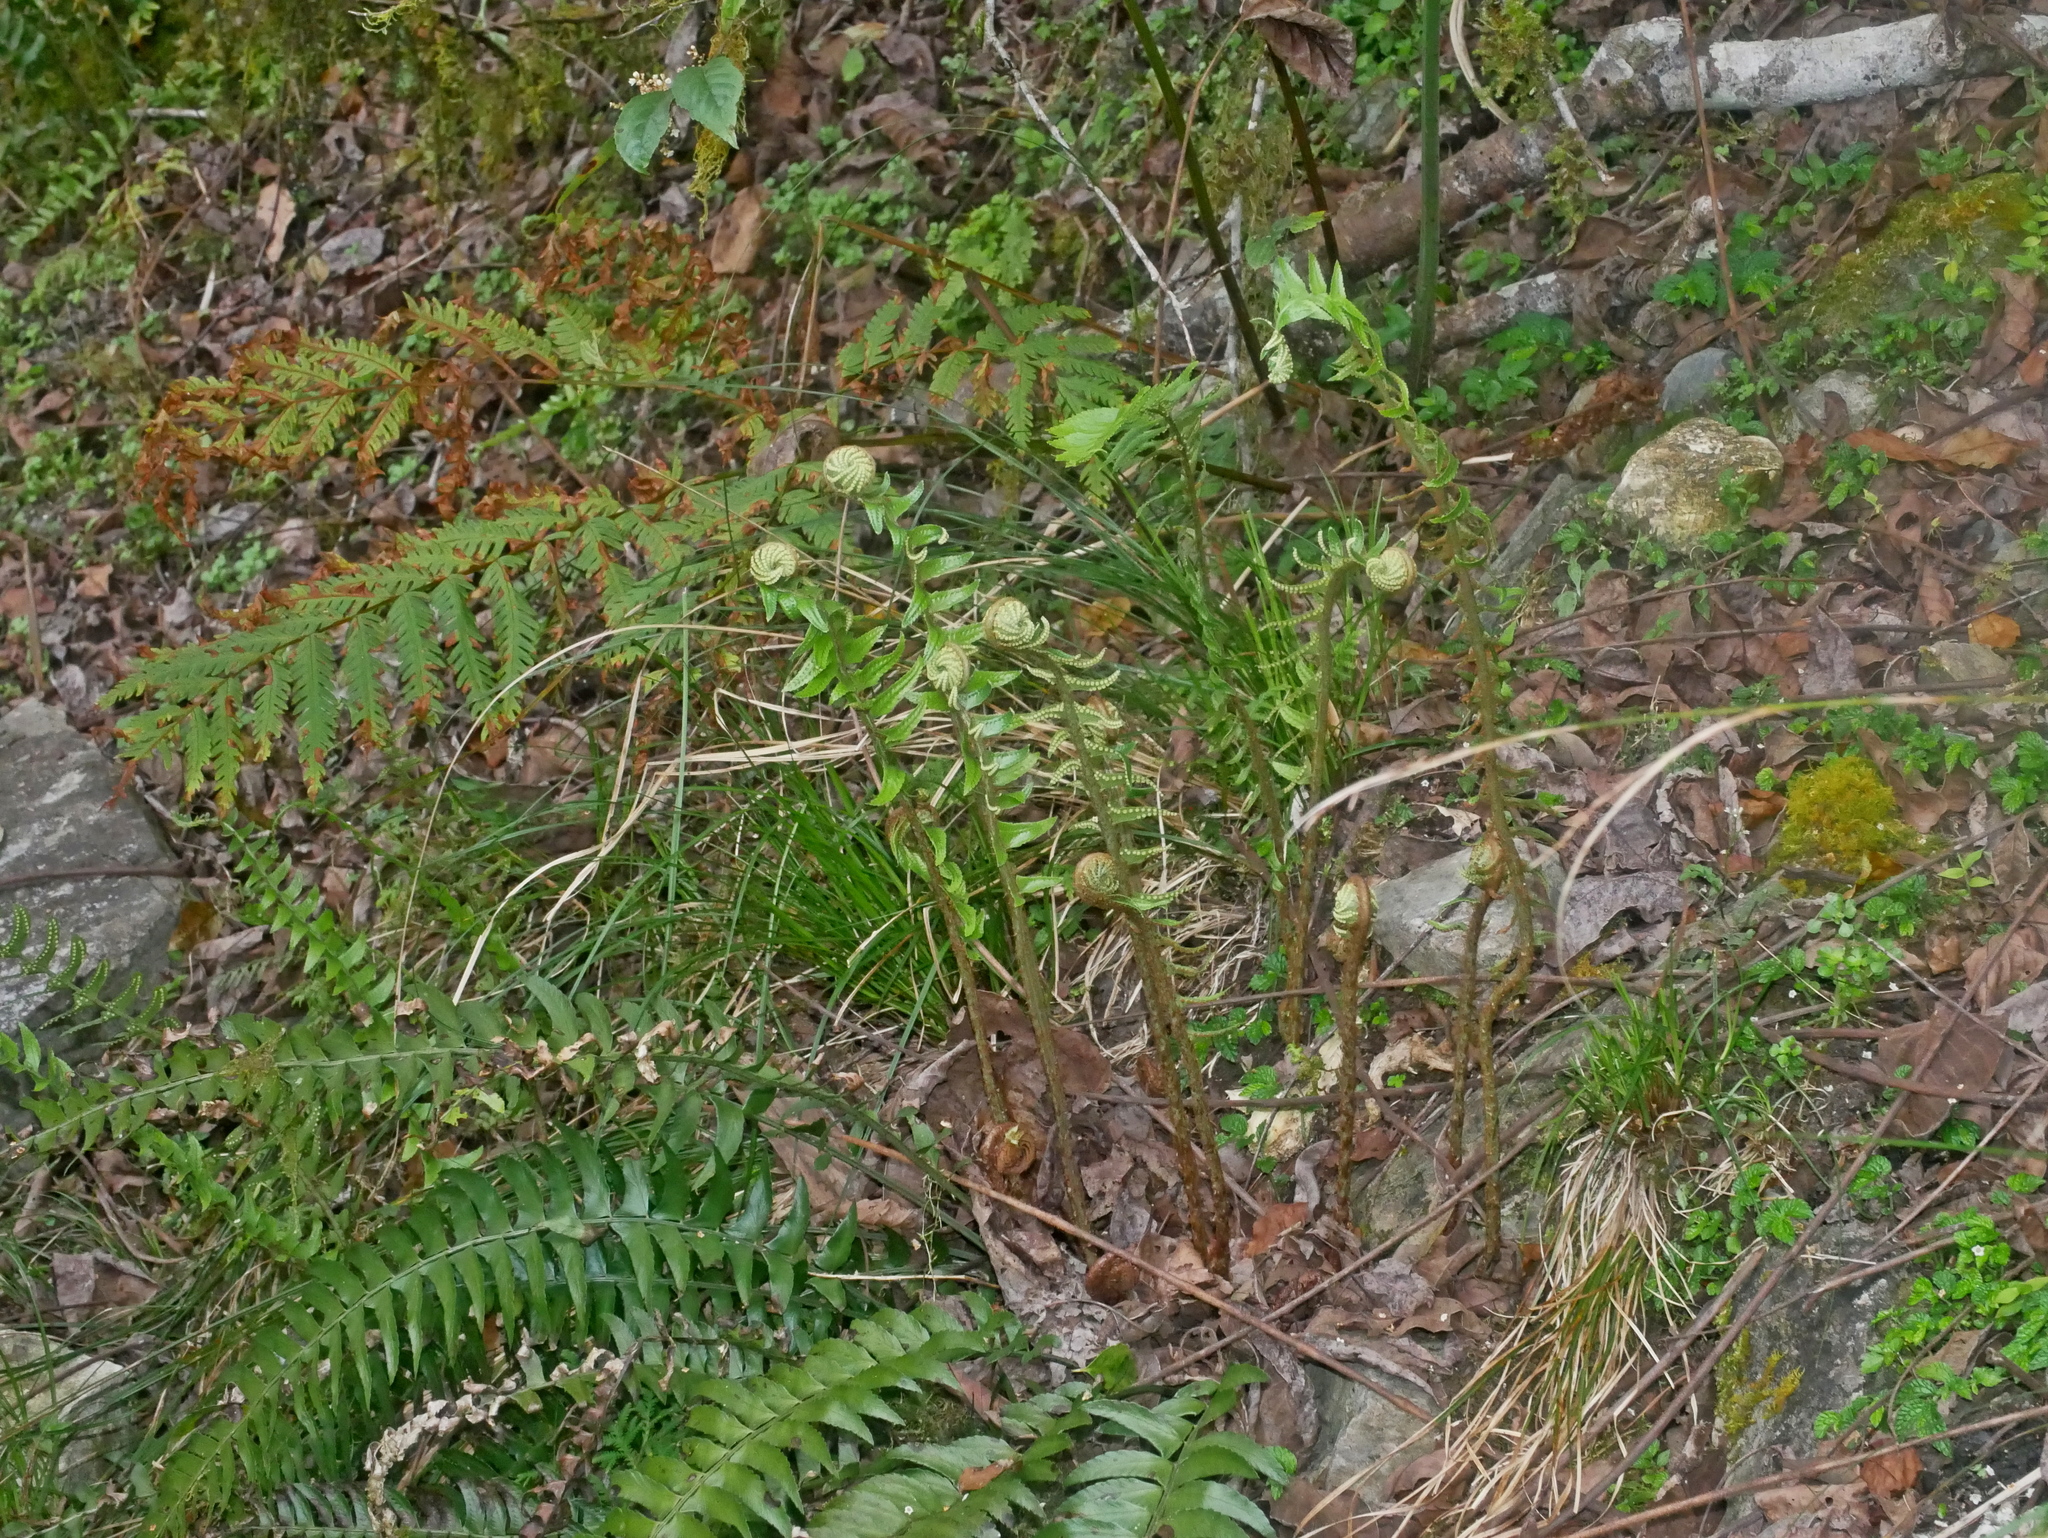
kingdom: Plantae
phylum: Tracheophyta
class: Polypodiopsida
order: Polypodiales
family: Dryopteridaceae
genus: Polystichum
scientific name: Polystichum acutidens
